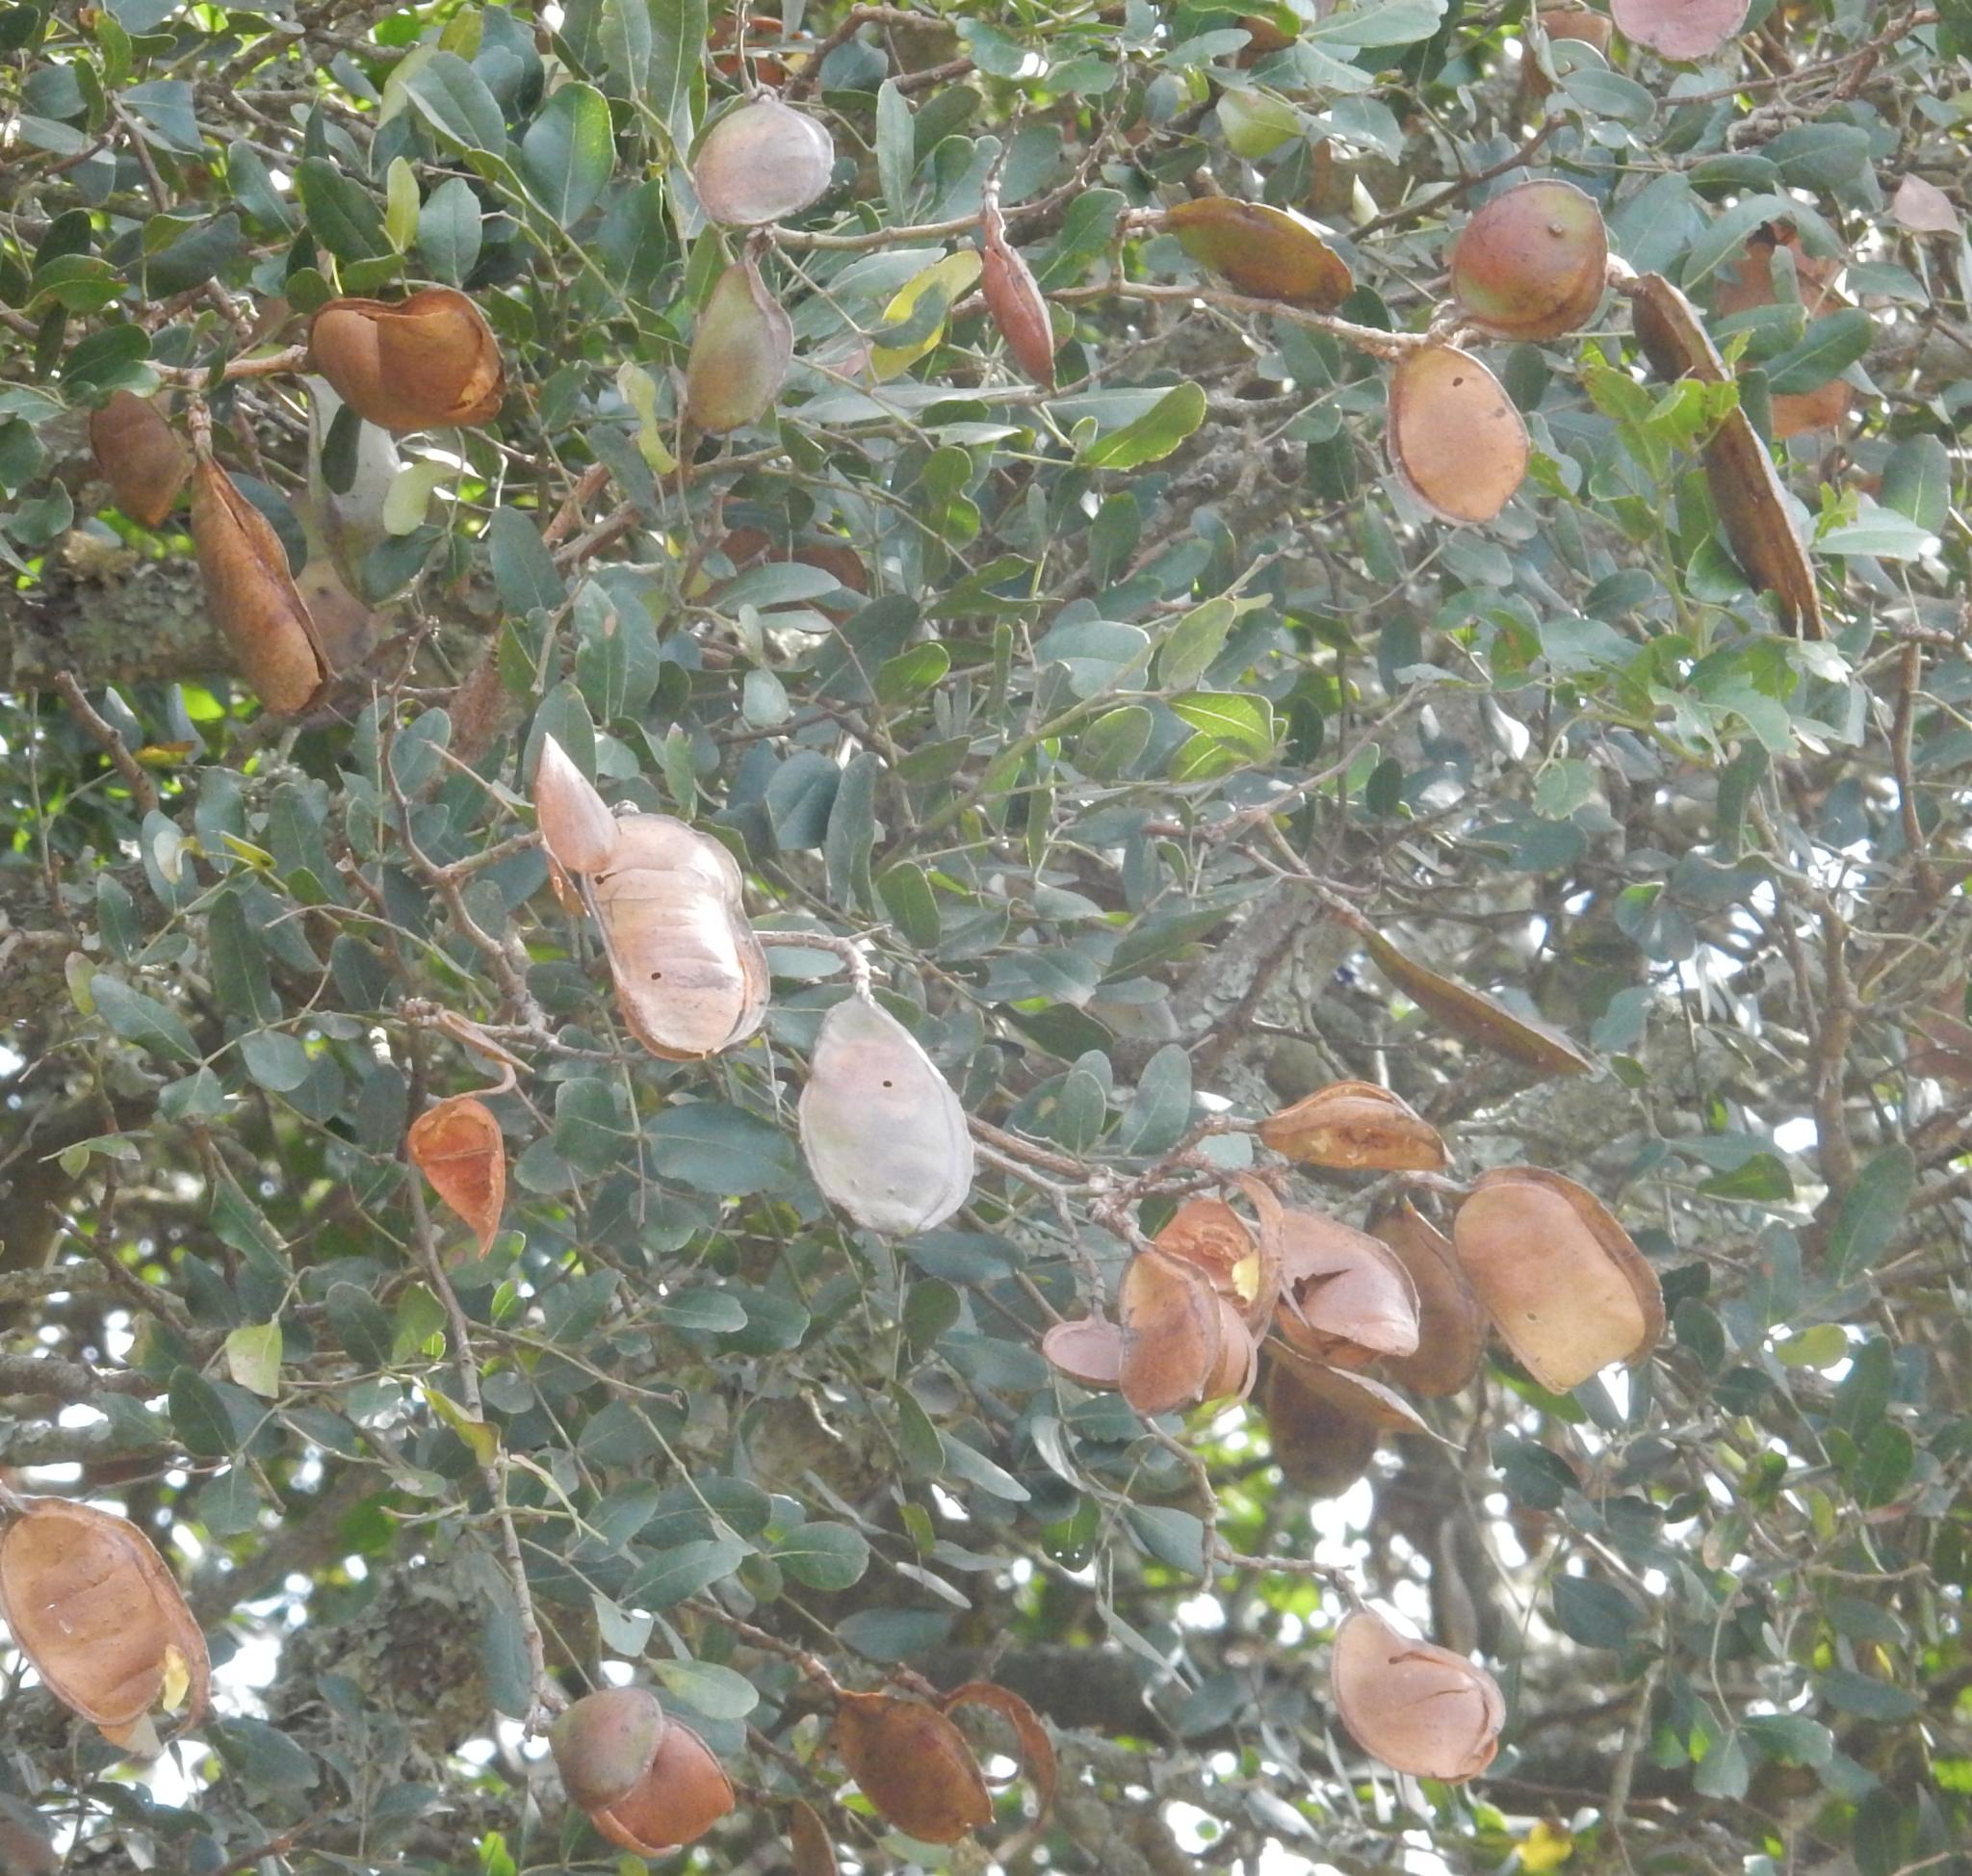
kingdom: Plantae
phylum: Tracheophyta
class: Magnoliopsida
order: Fabales
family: Fabaceae
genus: Schotia
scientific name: Schotia latifolia
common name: Bush boer-bean
